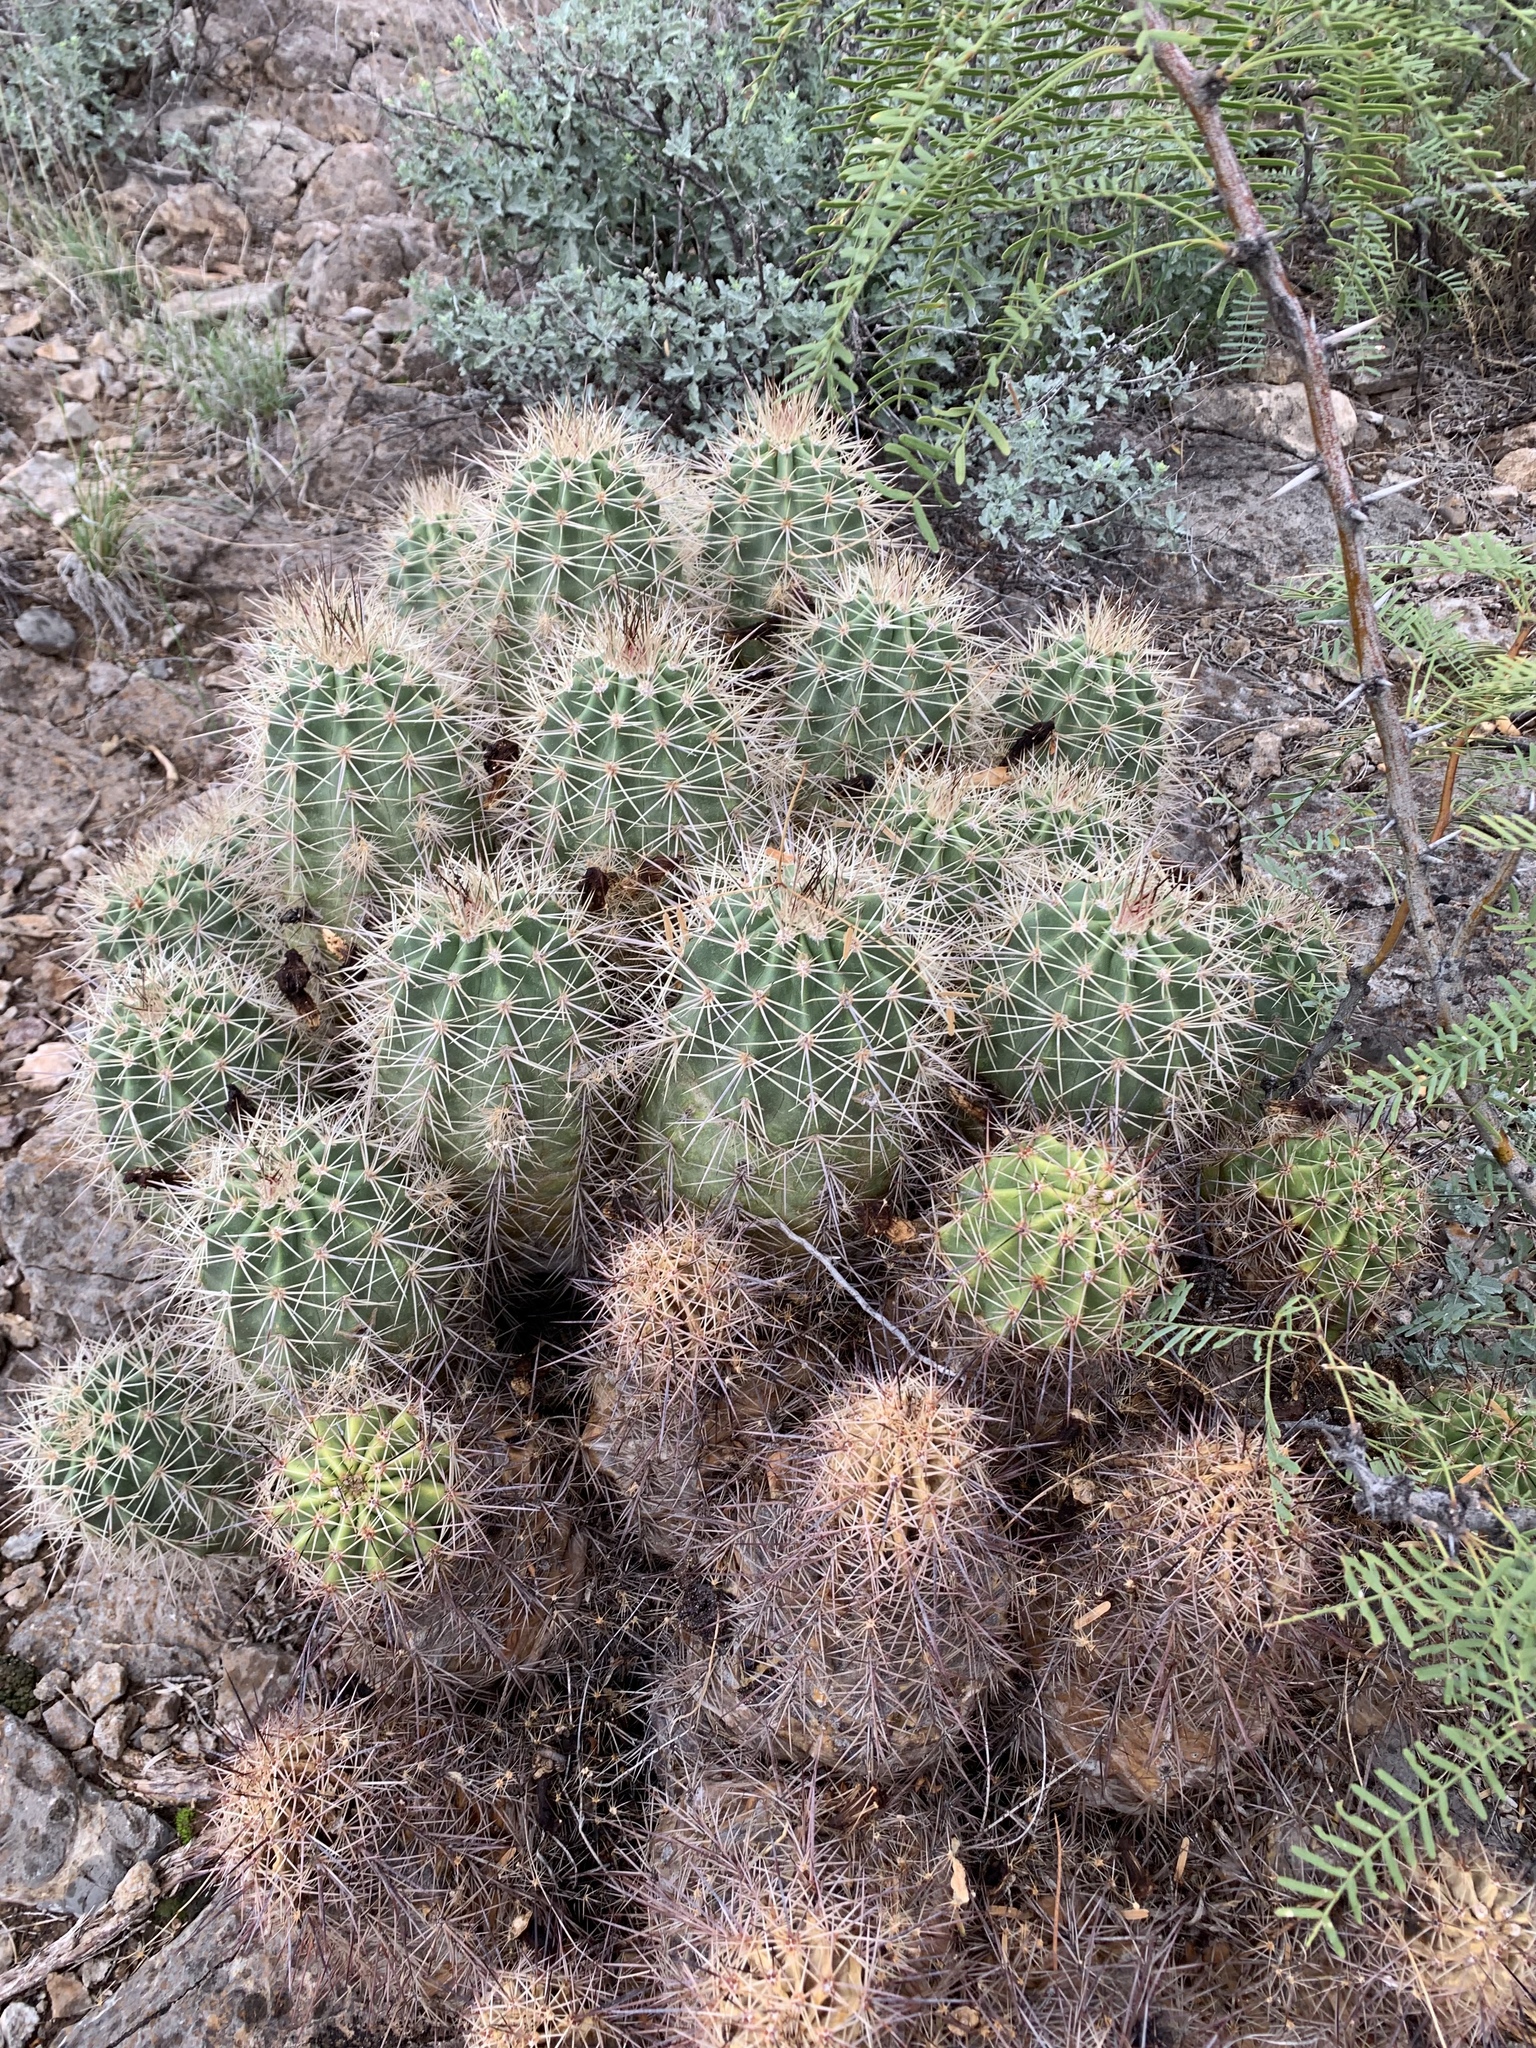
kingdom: Plantae
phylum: Tracheophyta
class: Magnoliopsida
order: Caryophyllales
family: Cactaceae
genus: Echinocereus
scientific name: Echinocereus coccineus
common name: Scarlet hedgehog cactus
